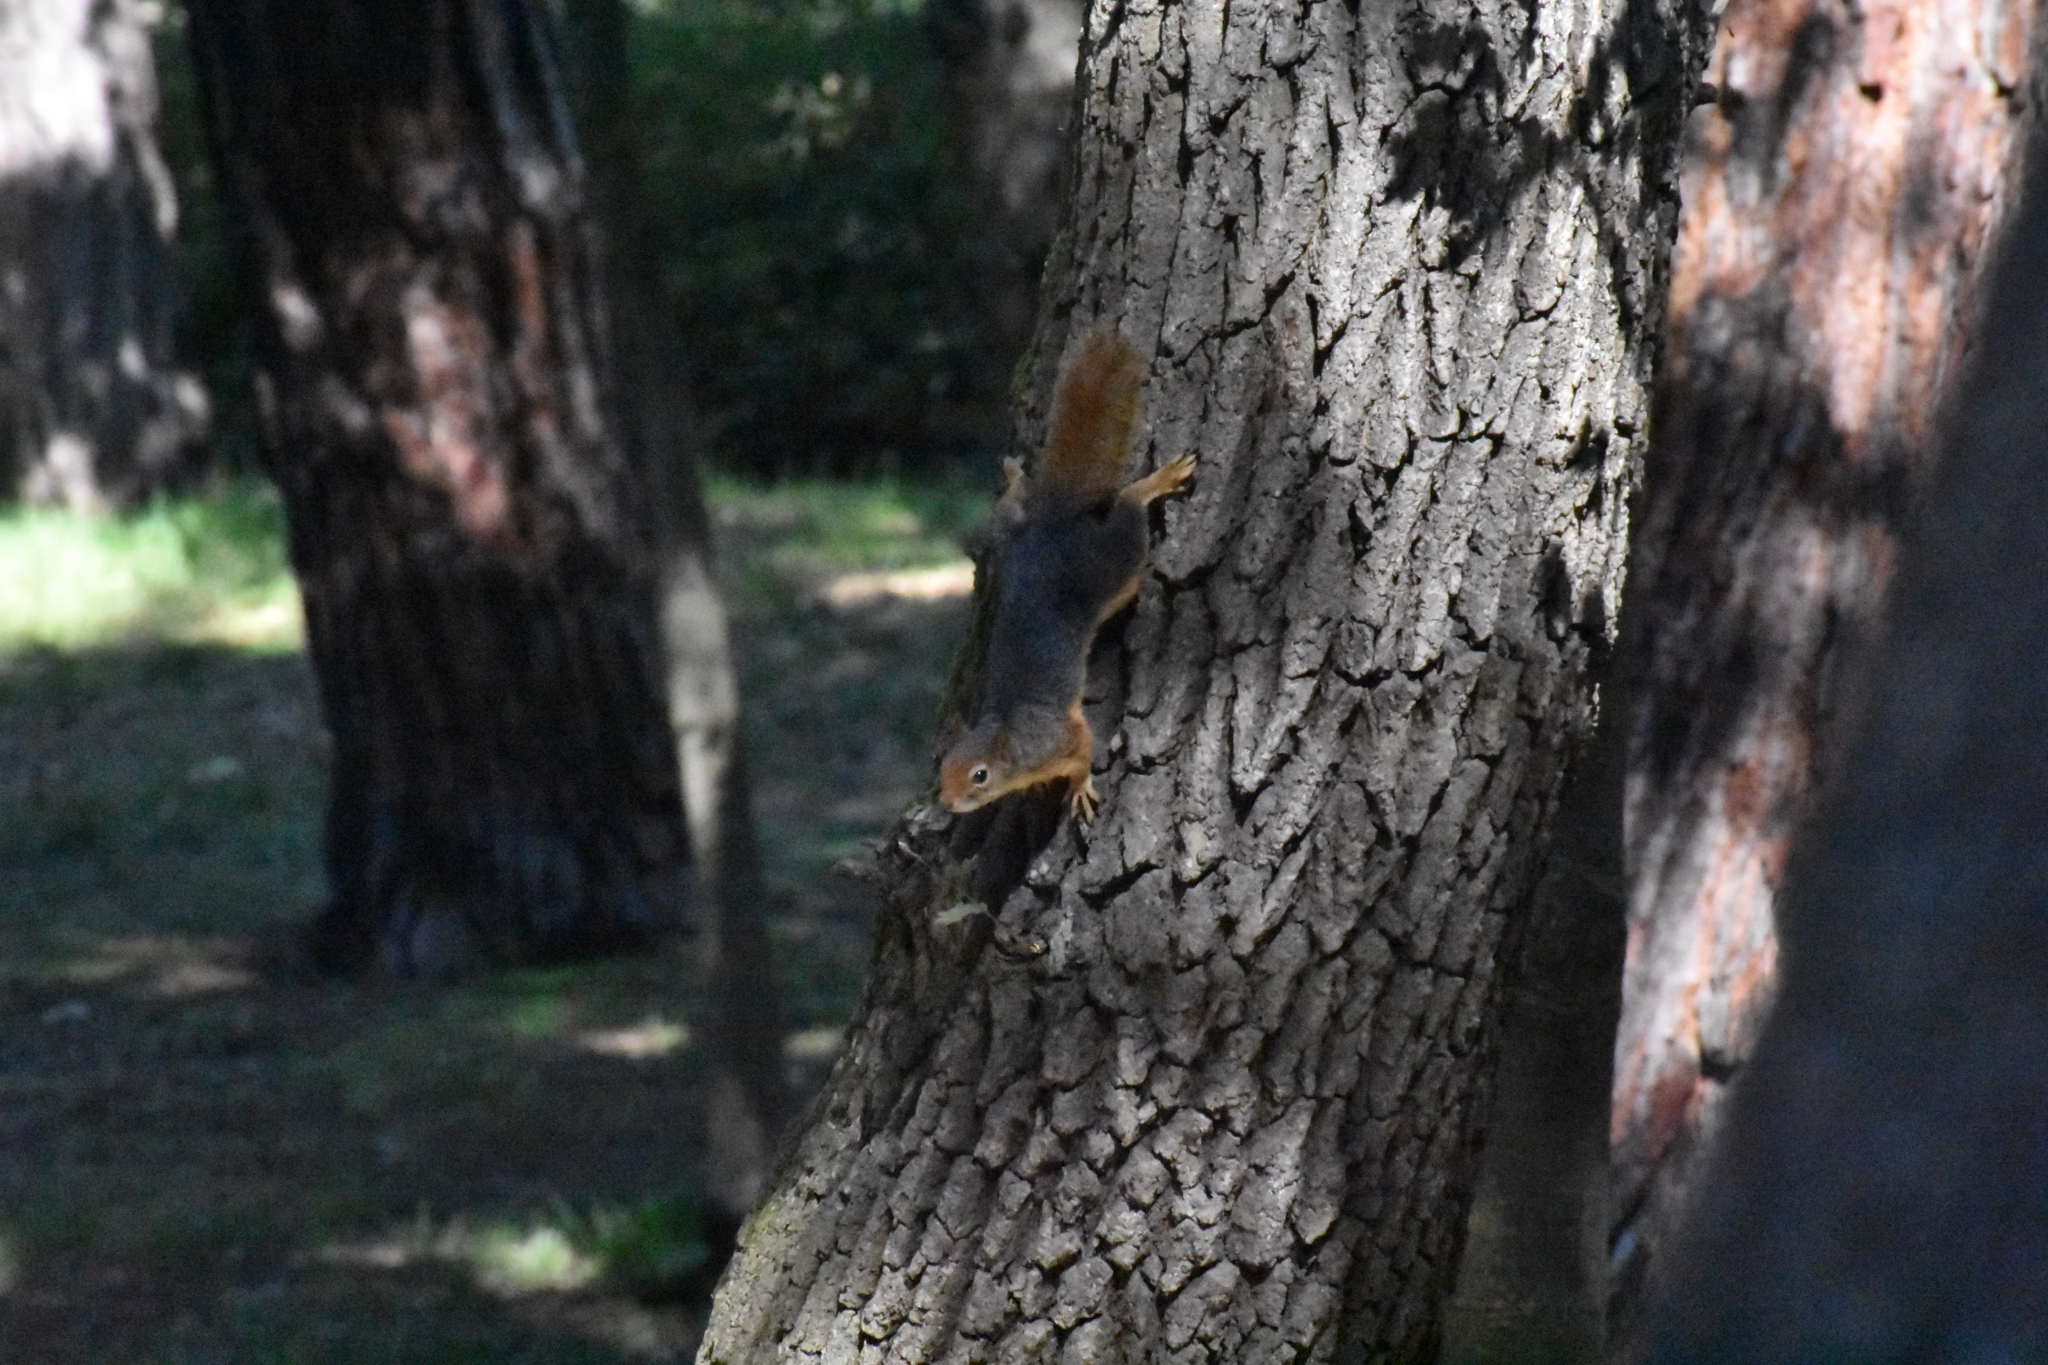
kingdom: Animalia
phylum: Chordata
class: Mammalia
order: Rodentia
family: Sciuridae
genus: Sciurus
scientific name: Sciurus anomalus
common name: Caucasian squirrel
